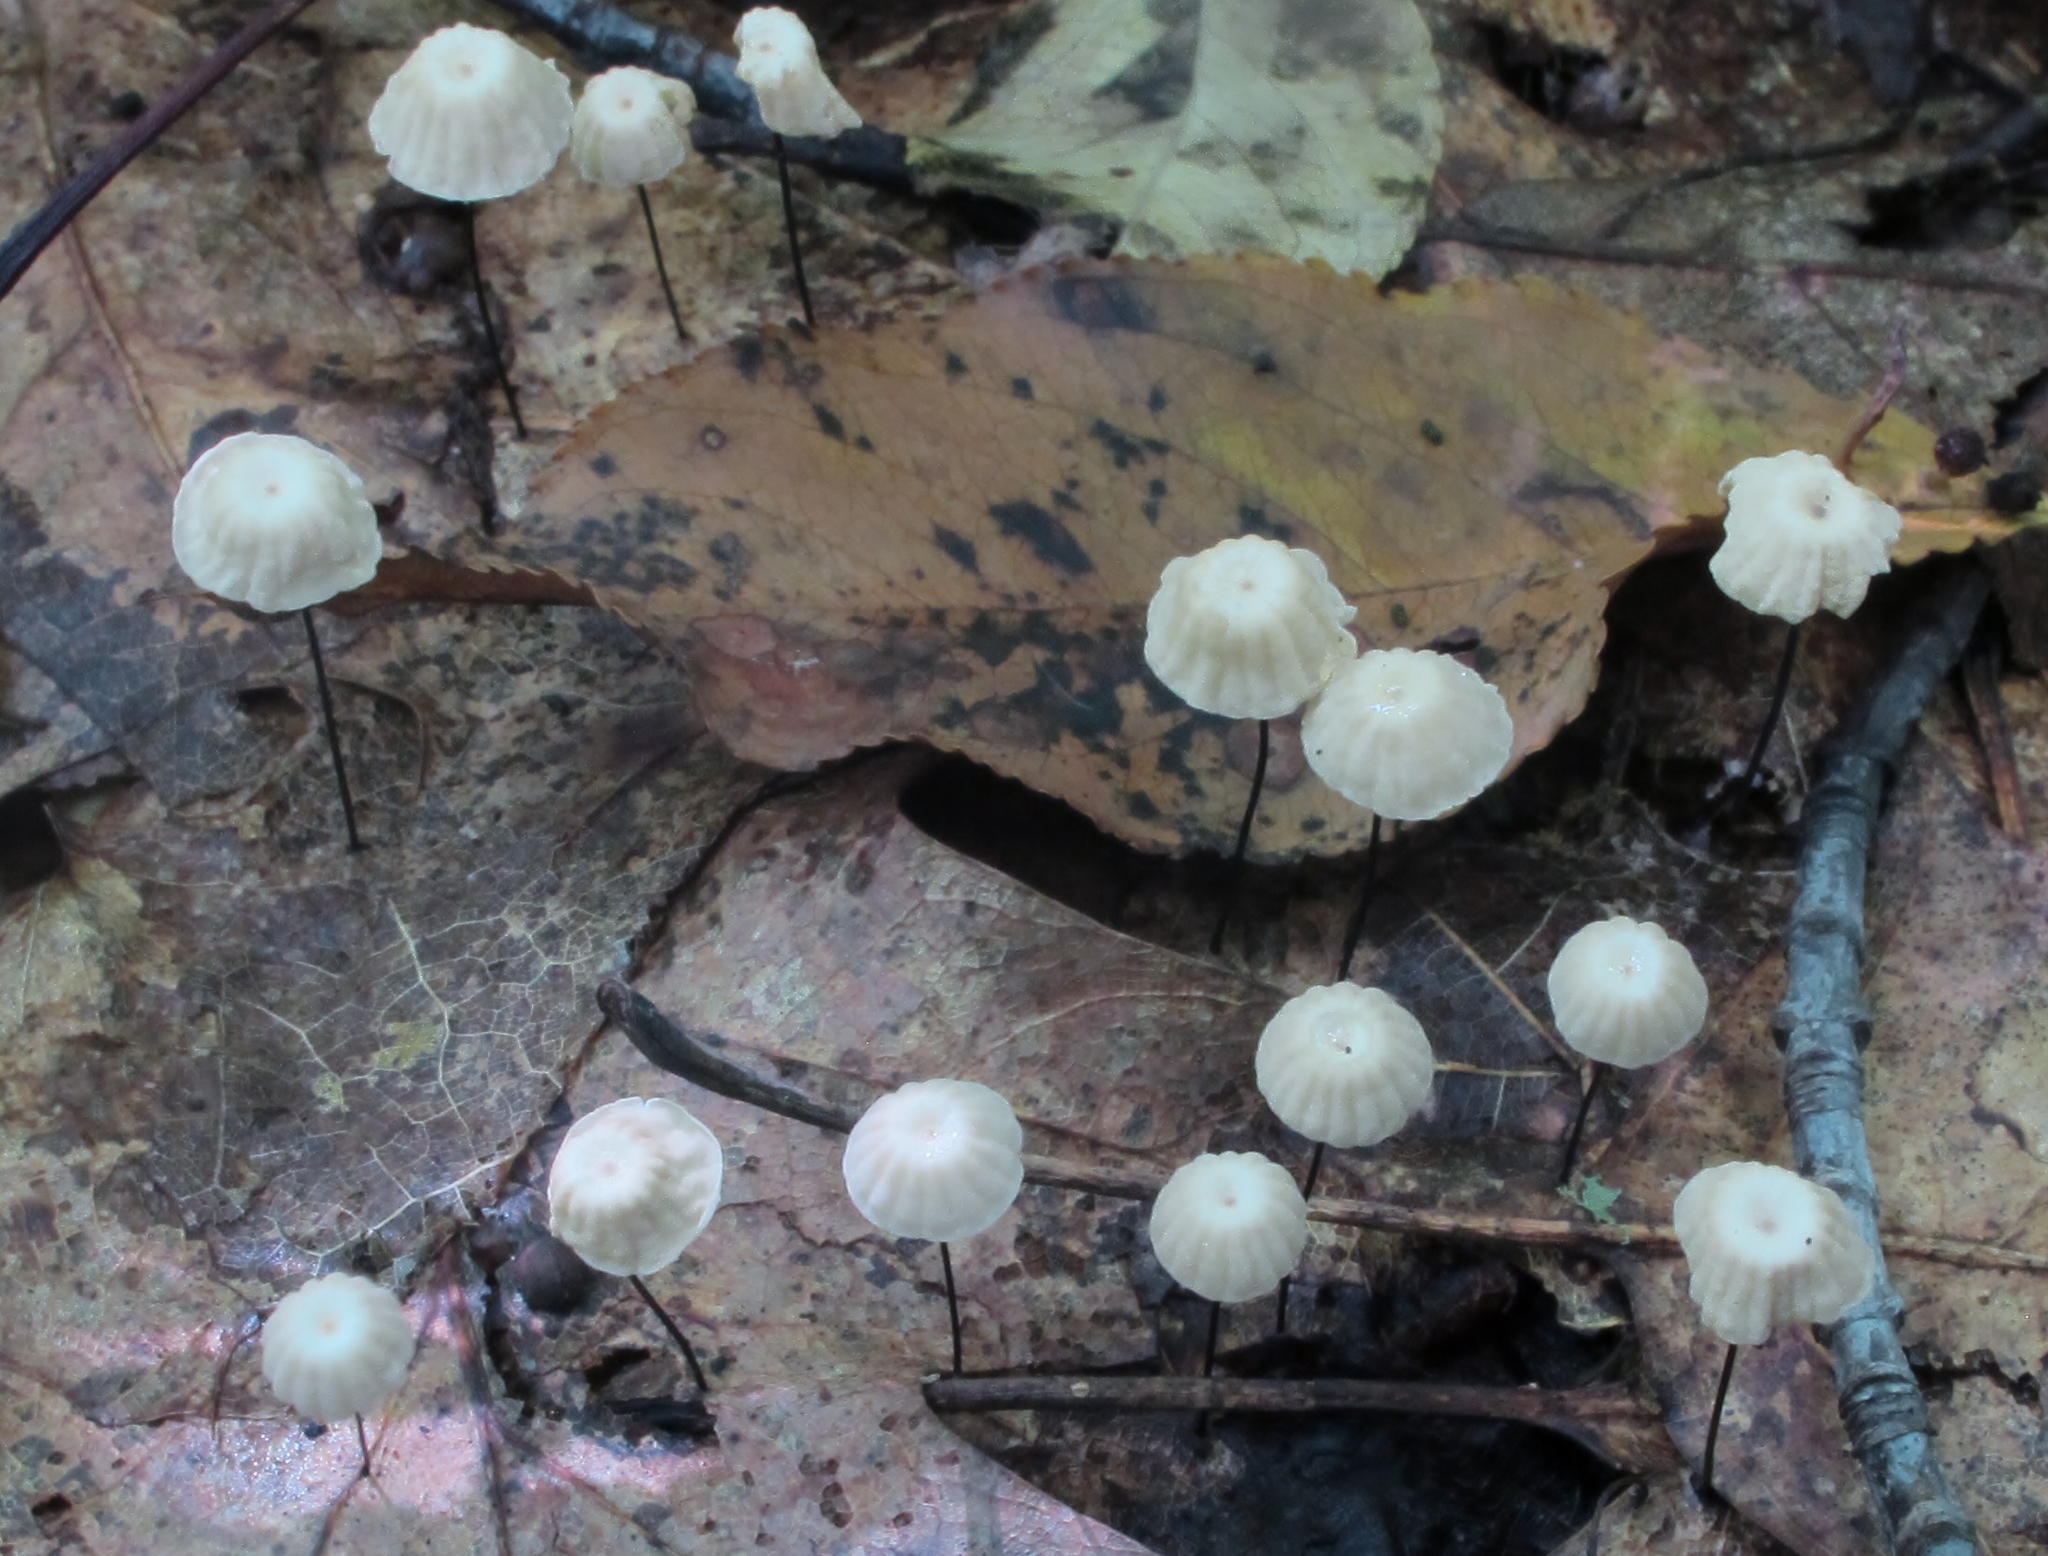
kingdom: Fungi
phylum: Basidiomycota
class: Agaricomycetes
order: Agaricales
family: Marasmiaceae
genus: Marasmius
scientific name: Marasmius capillaris
